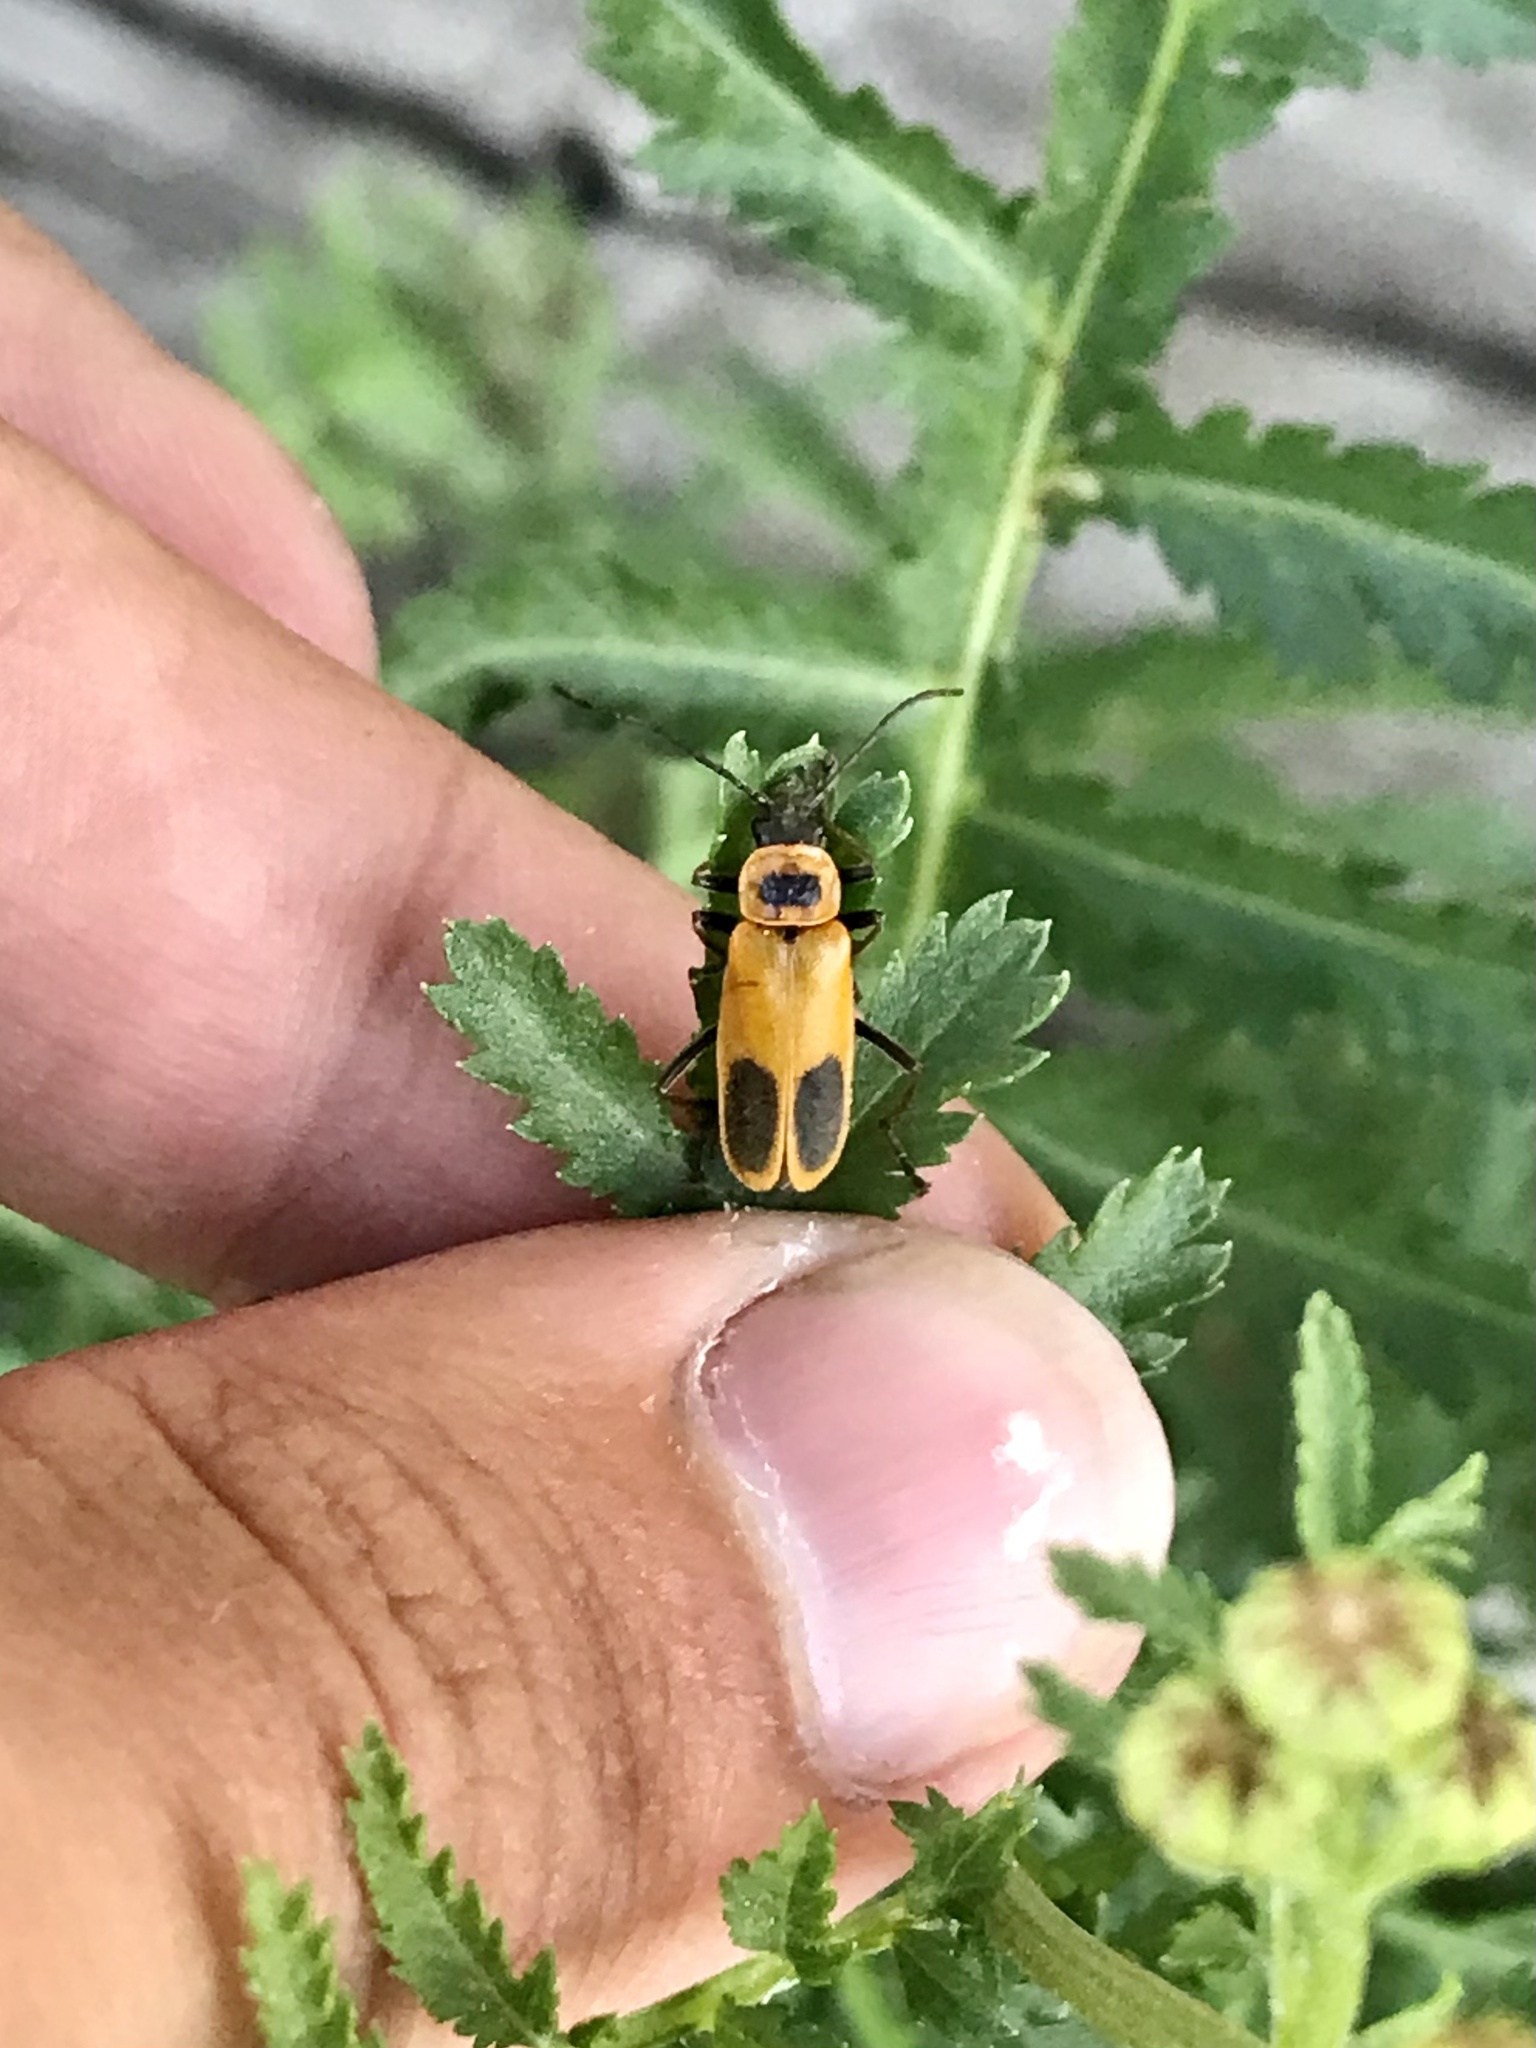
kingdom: Animalia
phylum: Arthropoda
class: Insecta
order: Coleoptera
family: Cantharidae
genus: Chauliognathus
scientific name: Chauliognathus pensylvanicus
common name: Goldenrod soldier beetle
